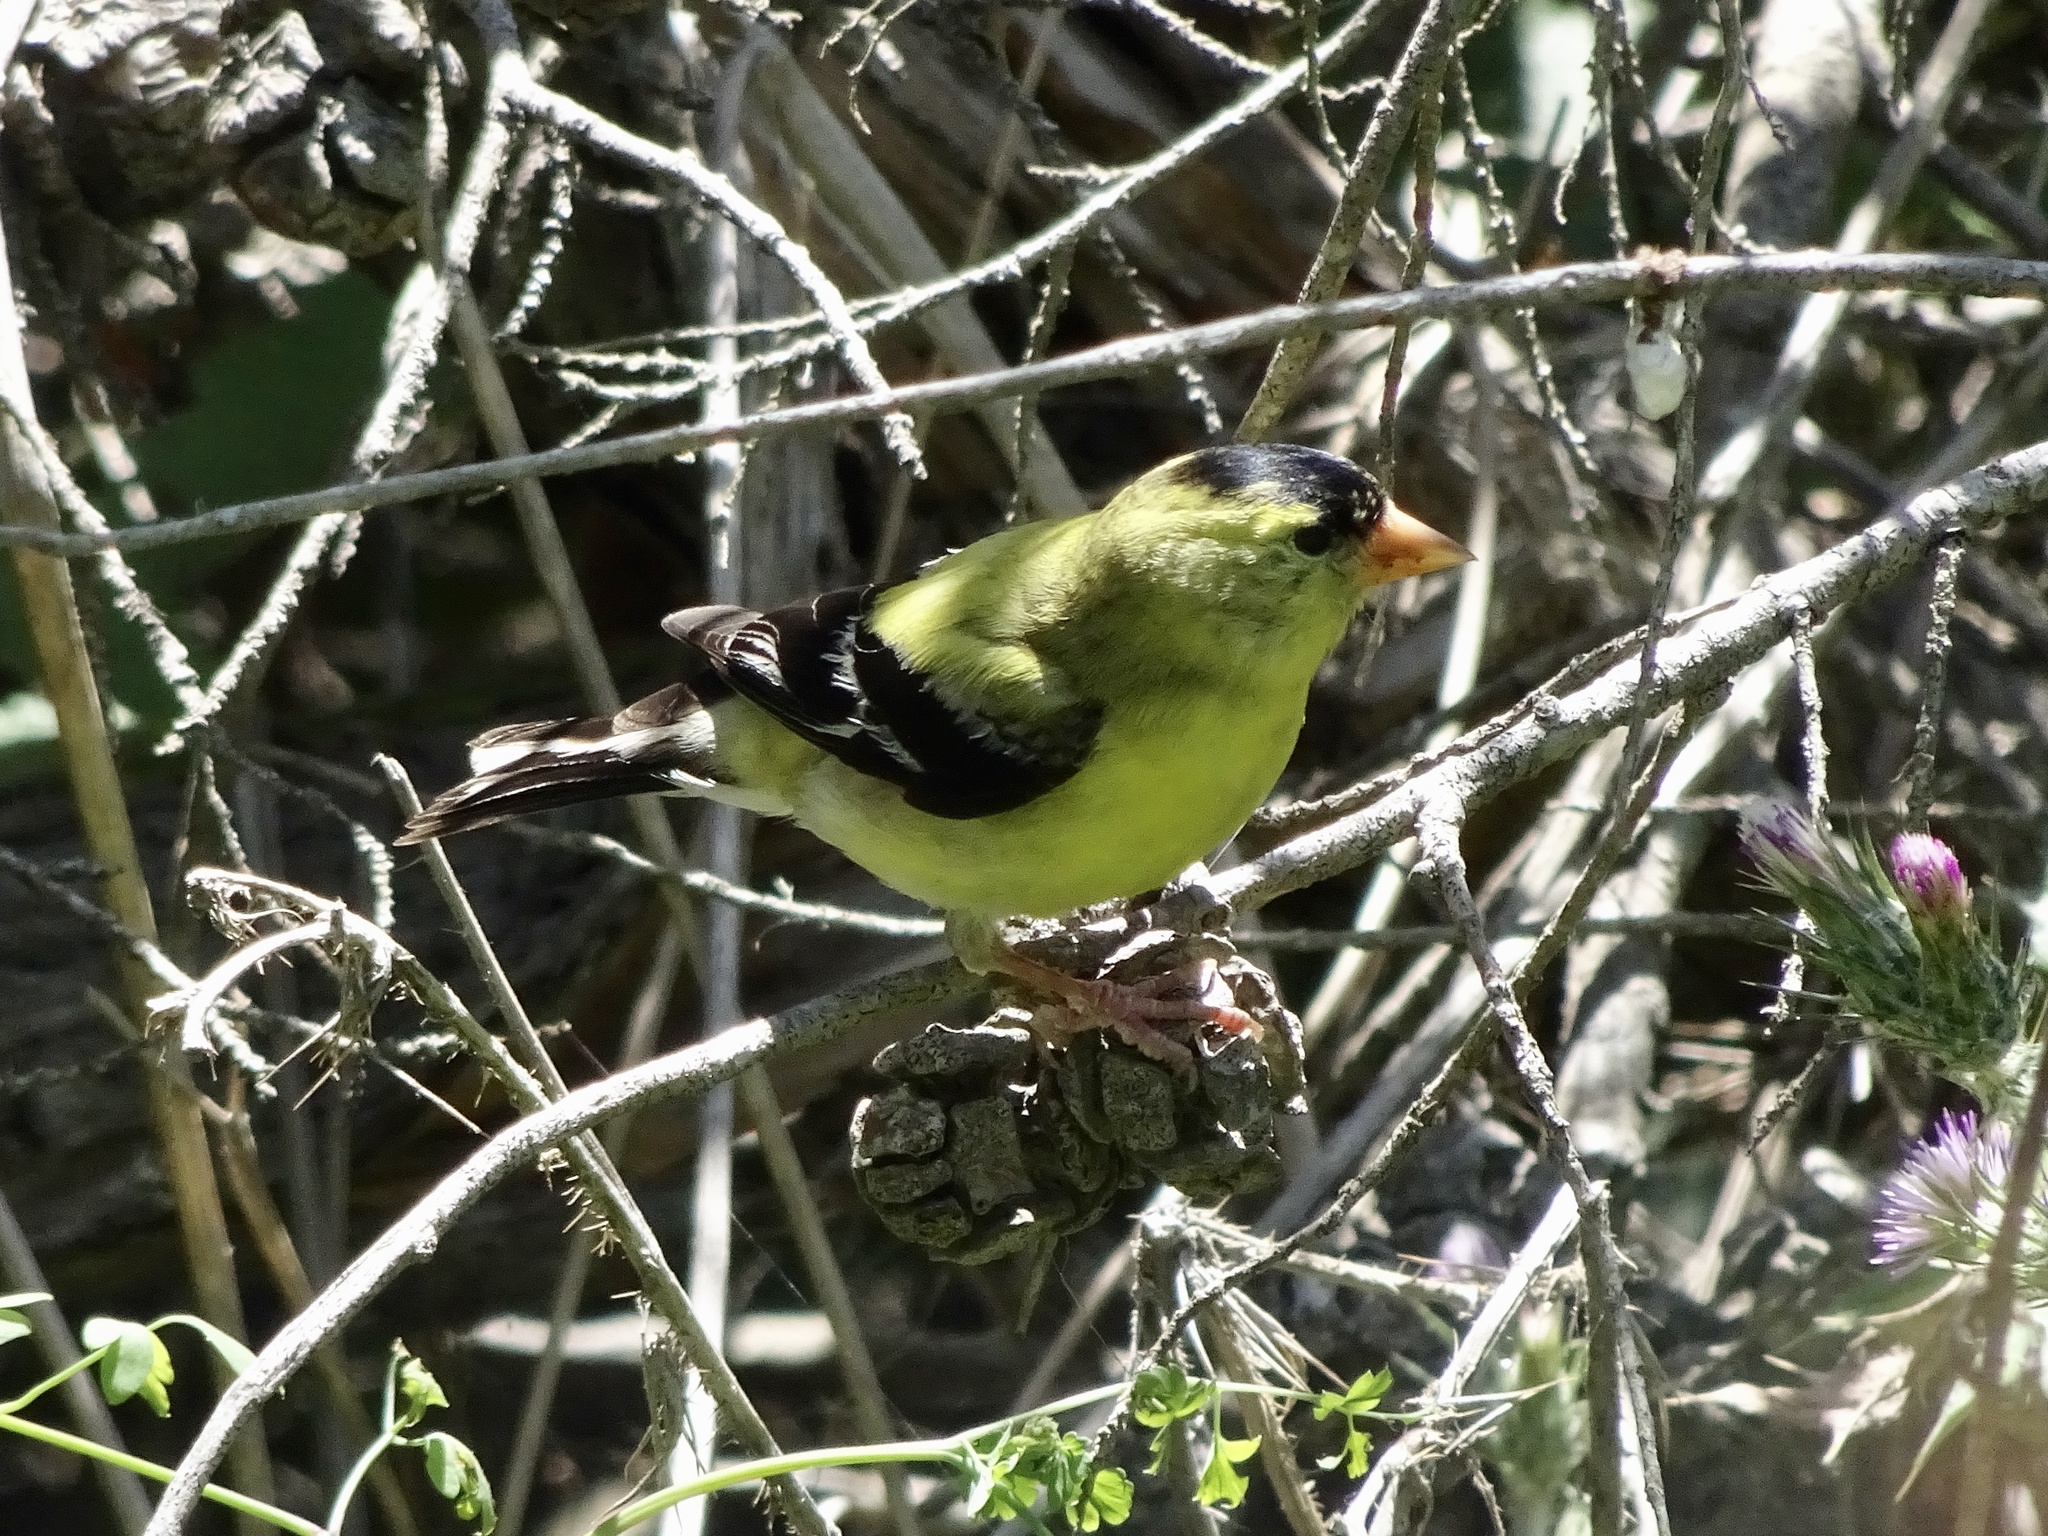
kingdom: Animalia
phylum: Chordata
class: Aves
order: Passeriformes
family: Fringillidae
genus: Spinus
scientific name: Spinus tristis
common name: American goldfinch
